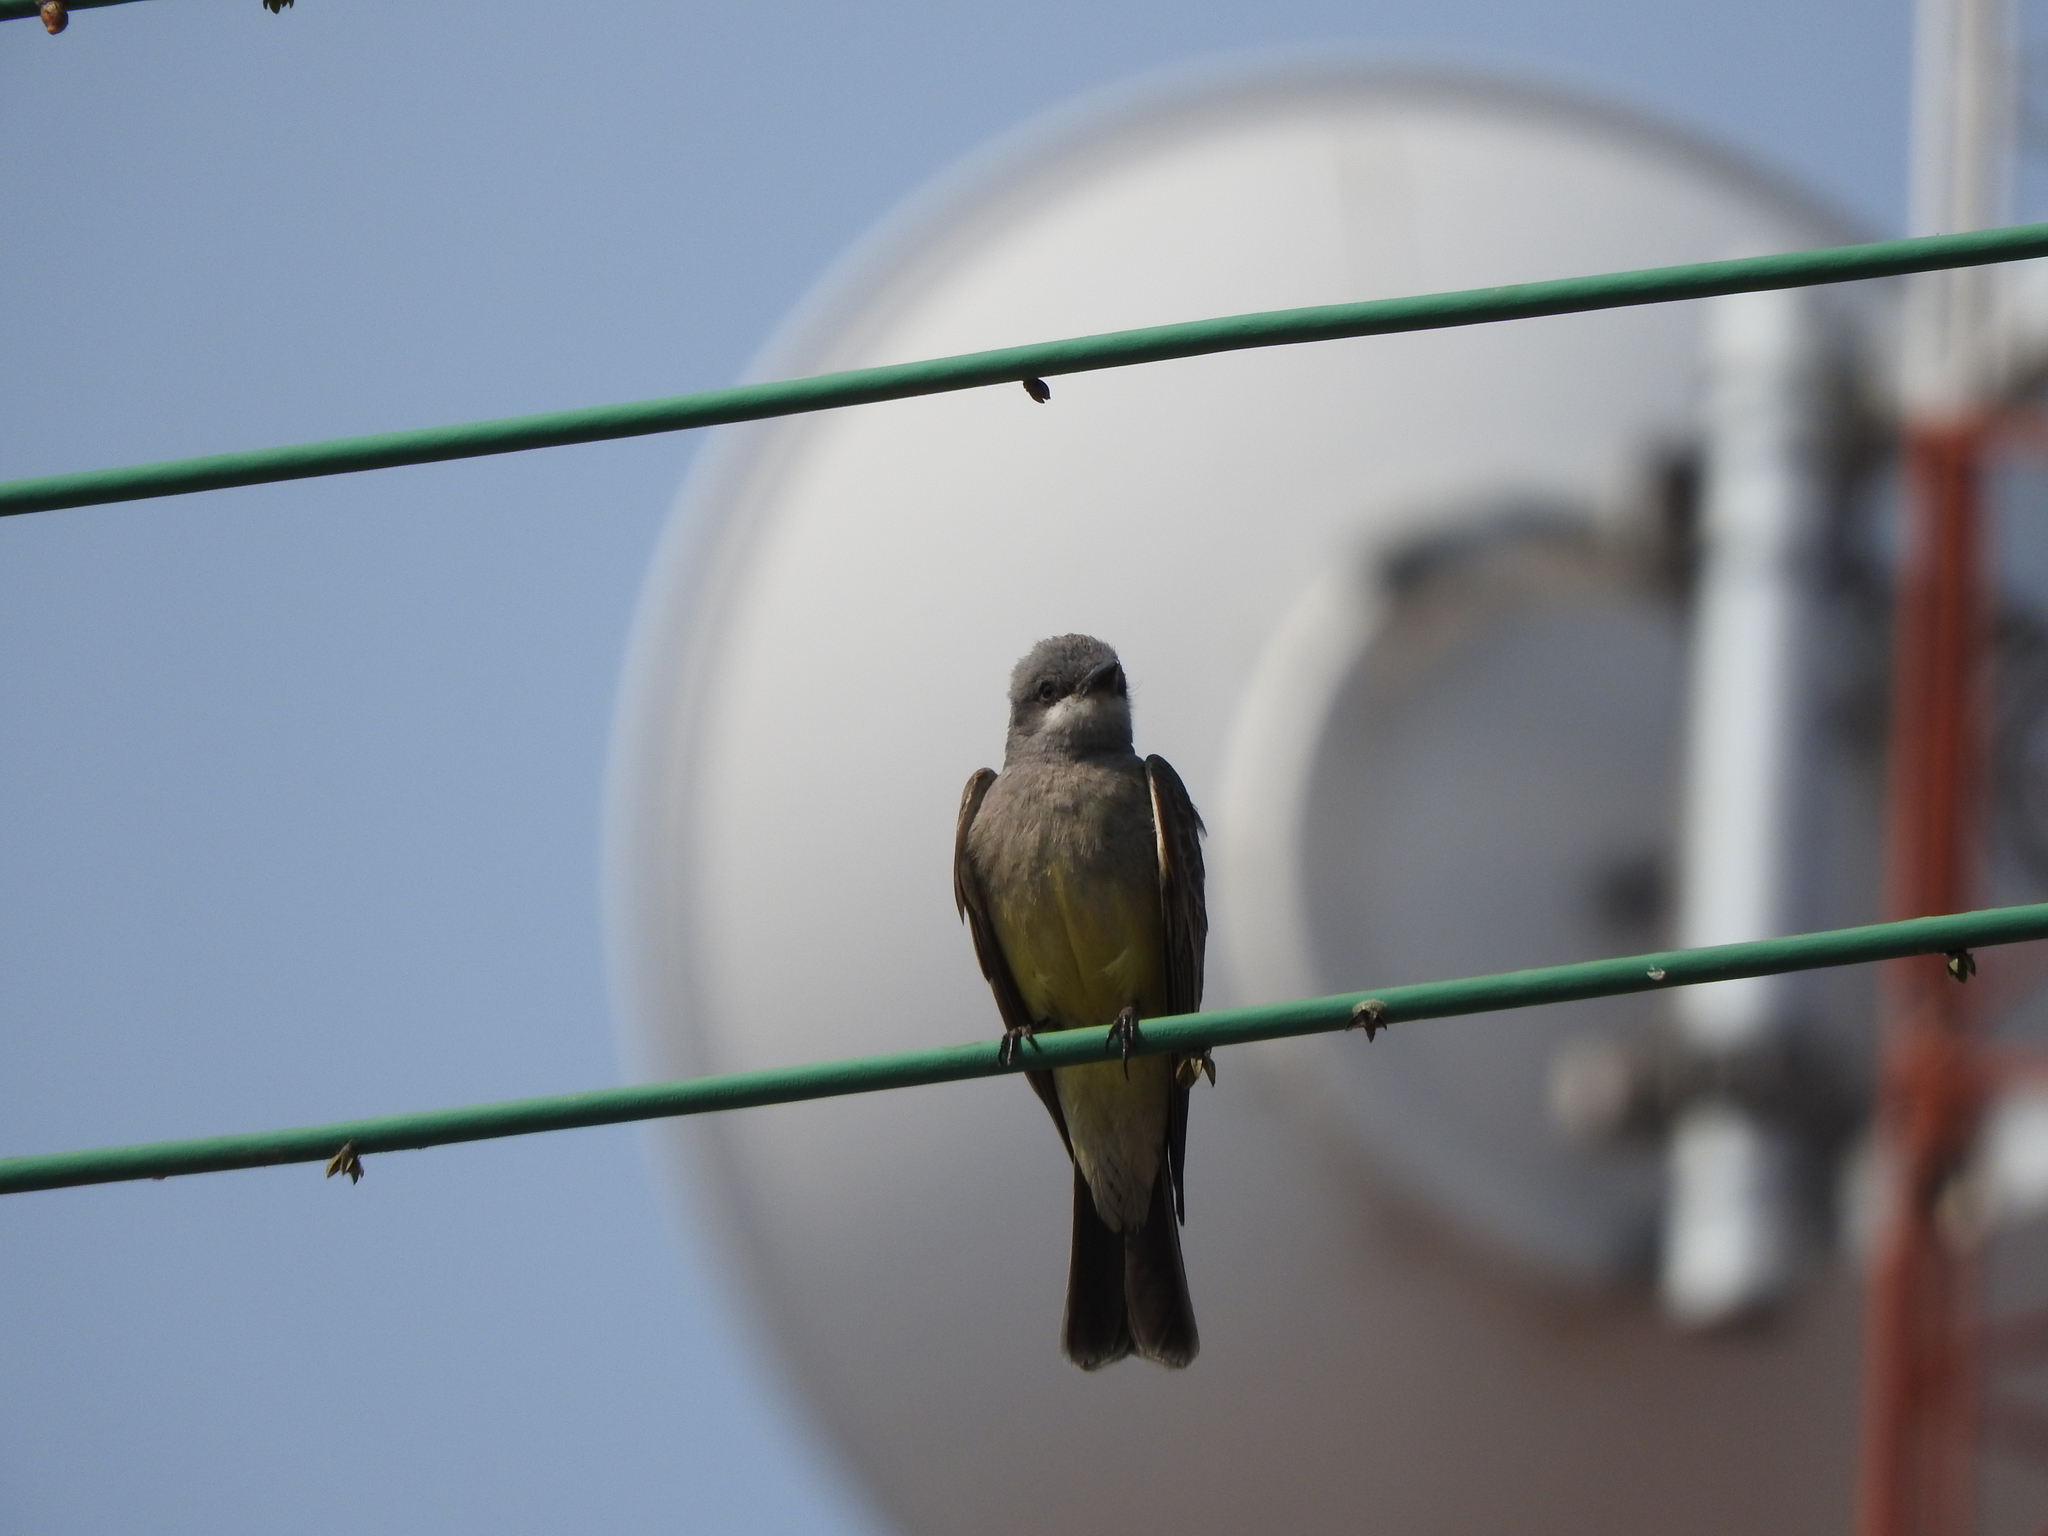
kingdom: Animalia
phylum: Chordata
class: Aves
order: Passeriformes
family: Tyrannidae
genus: Tyrannus
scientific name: Tyrannus vociferans
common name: Cassin's kingbird
